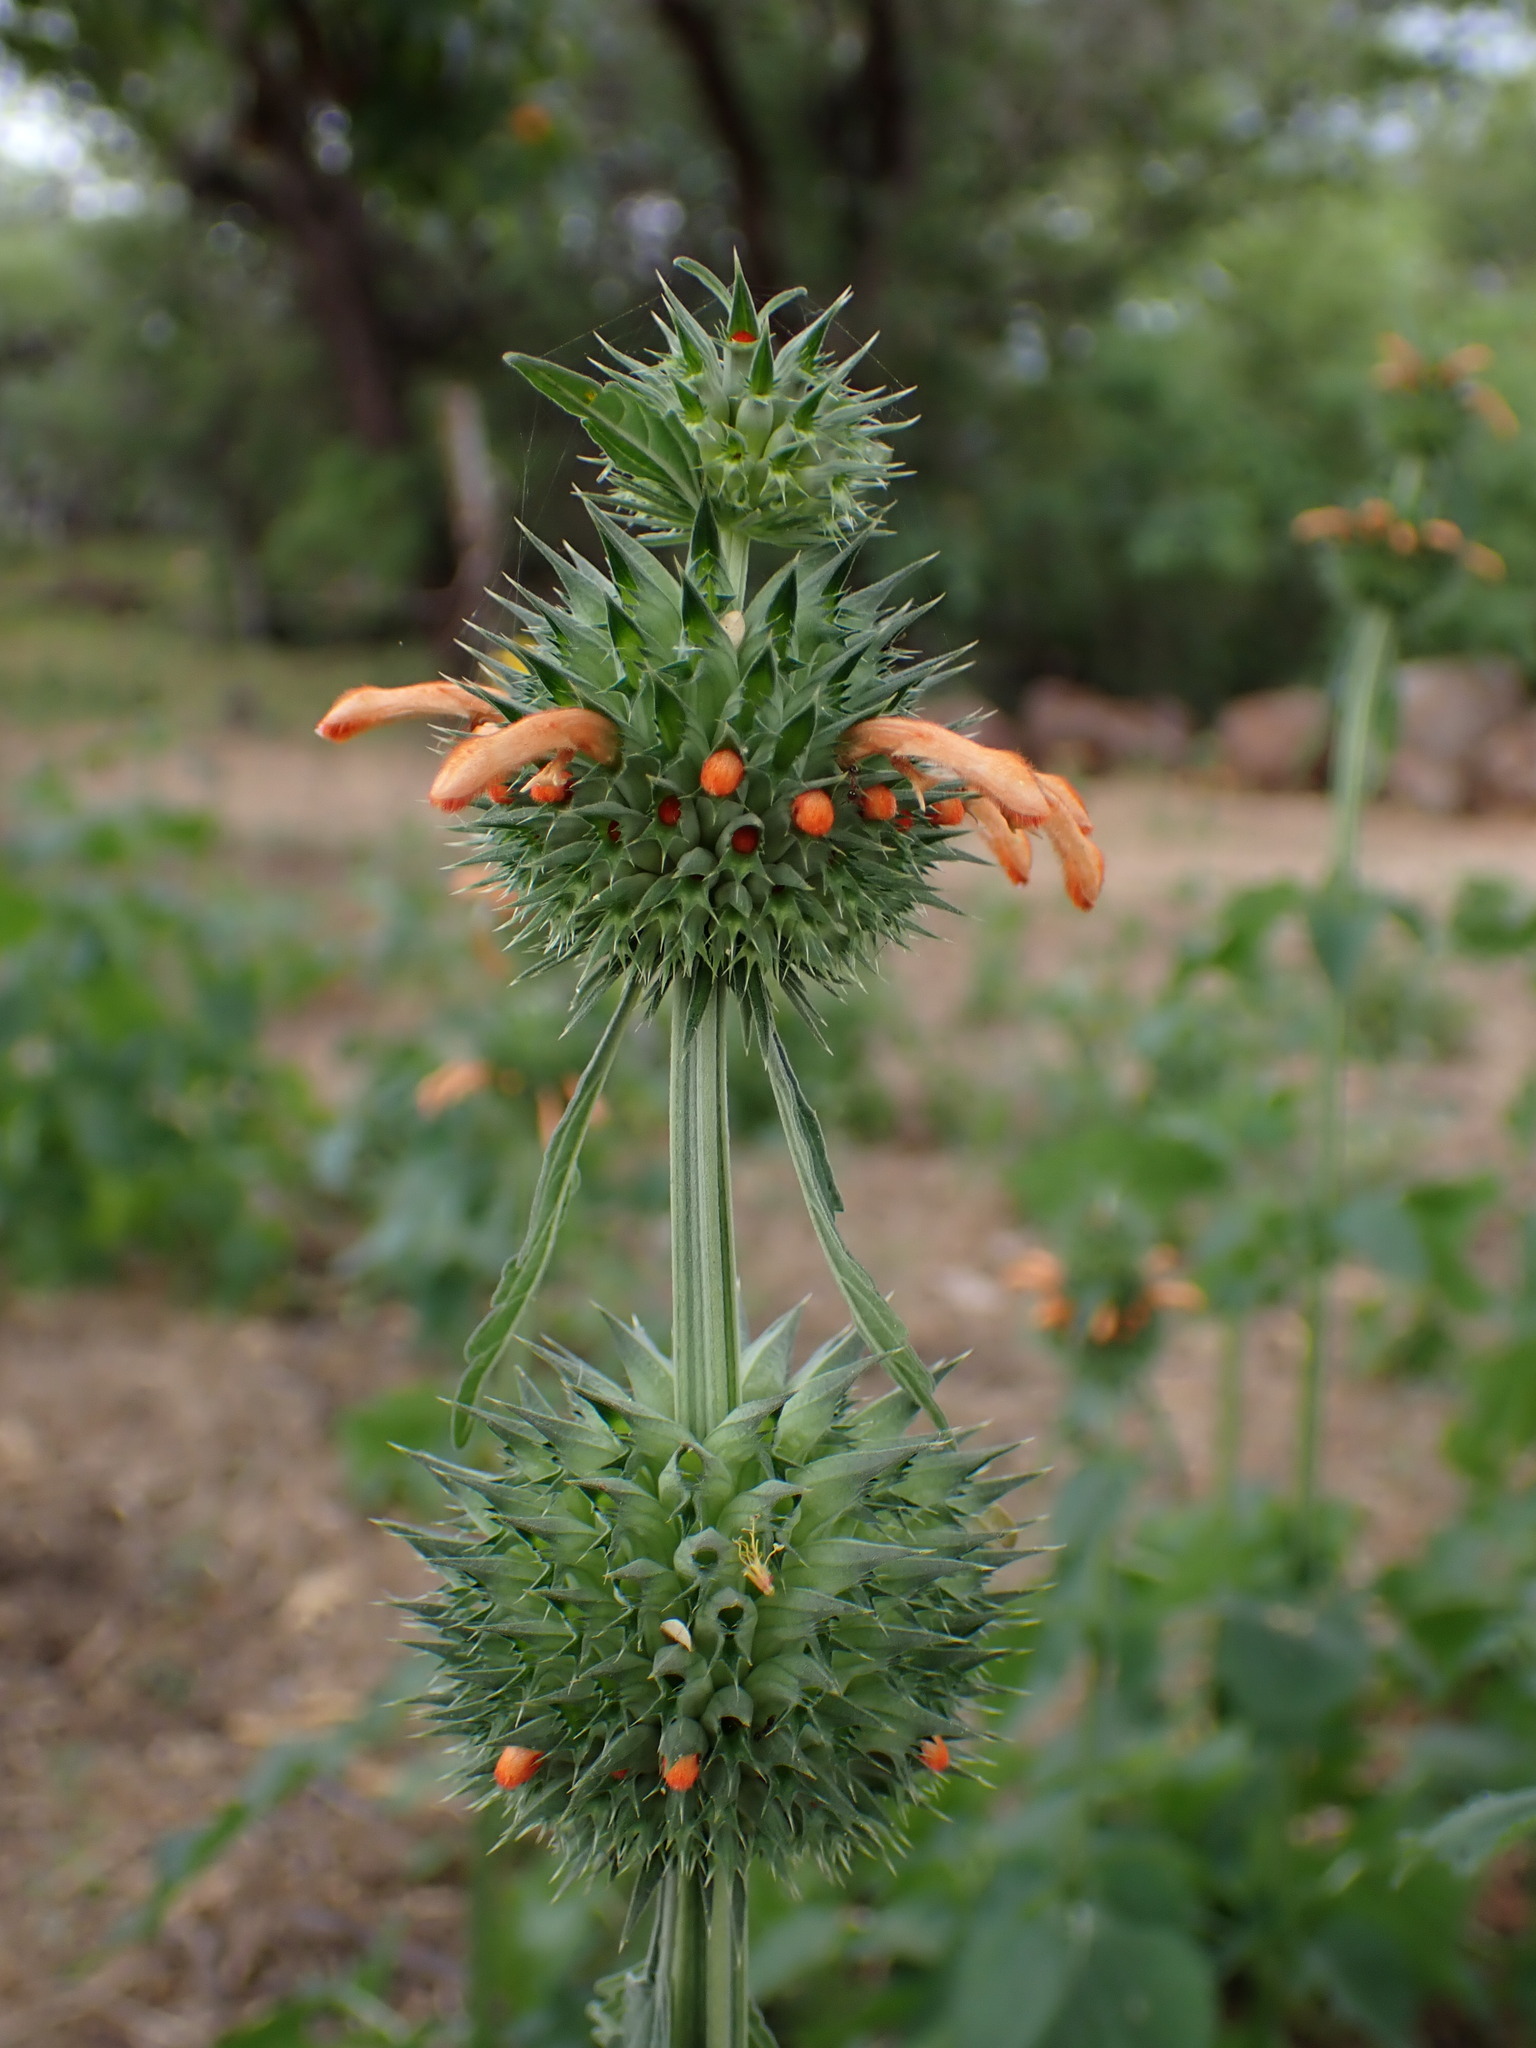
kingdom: Plantae
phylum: Tracheophyta
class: Magnoliopsida
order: Lamiales
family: Lamiaceae
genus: Leonotis
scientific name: Leonotis nepetifolia
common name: Christmas candlestick
